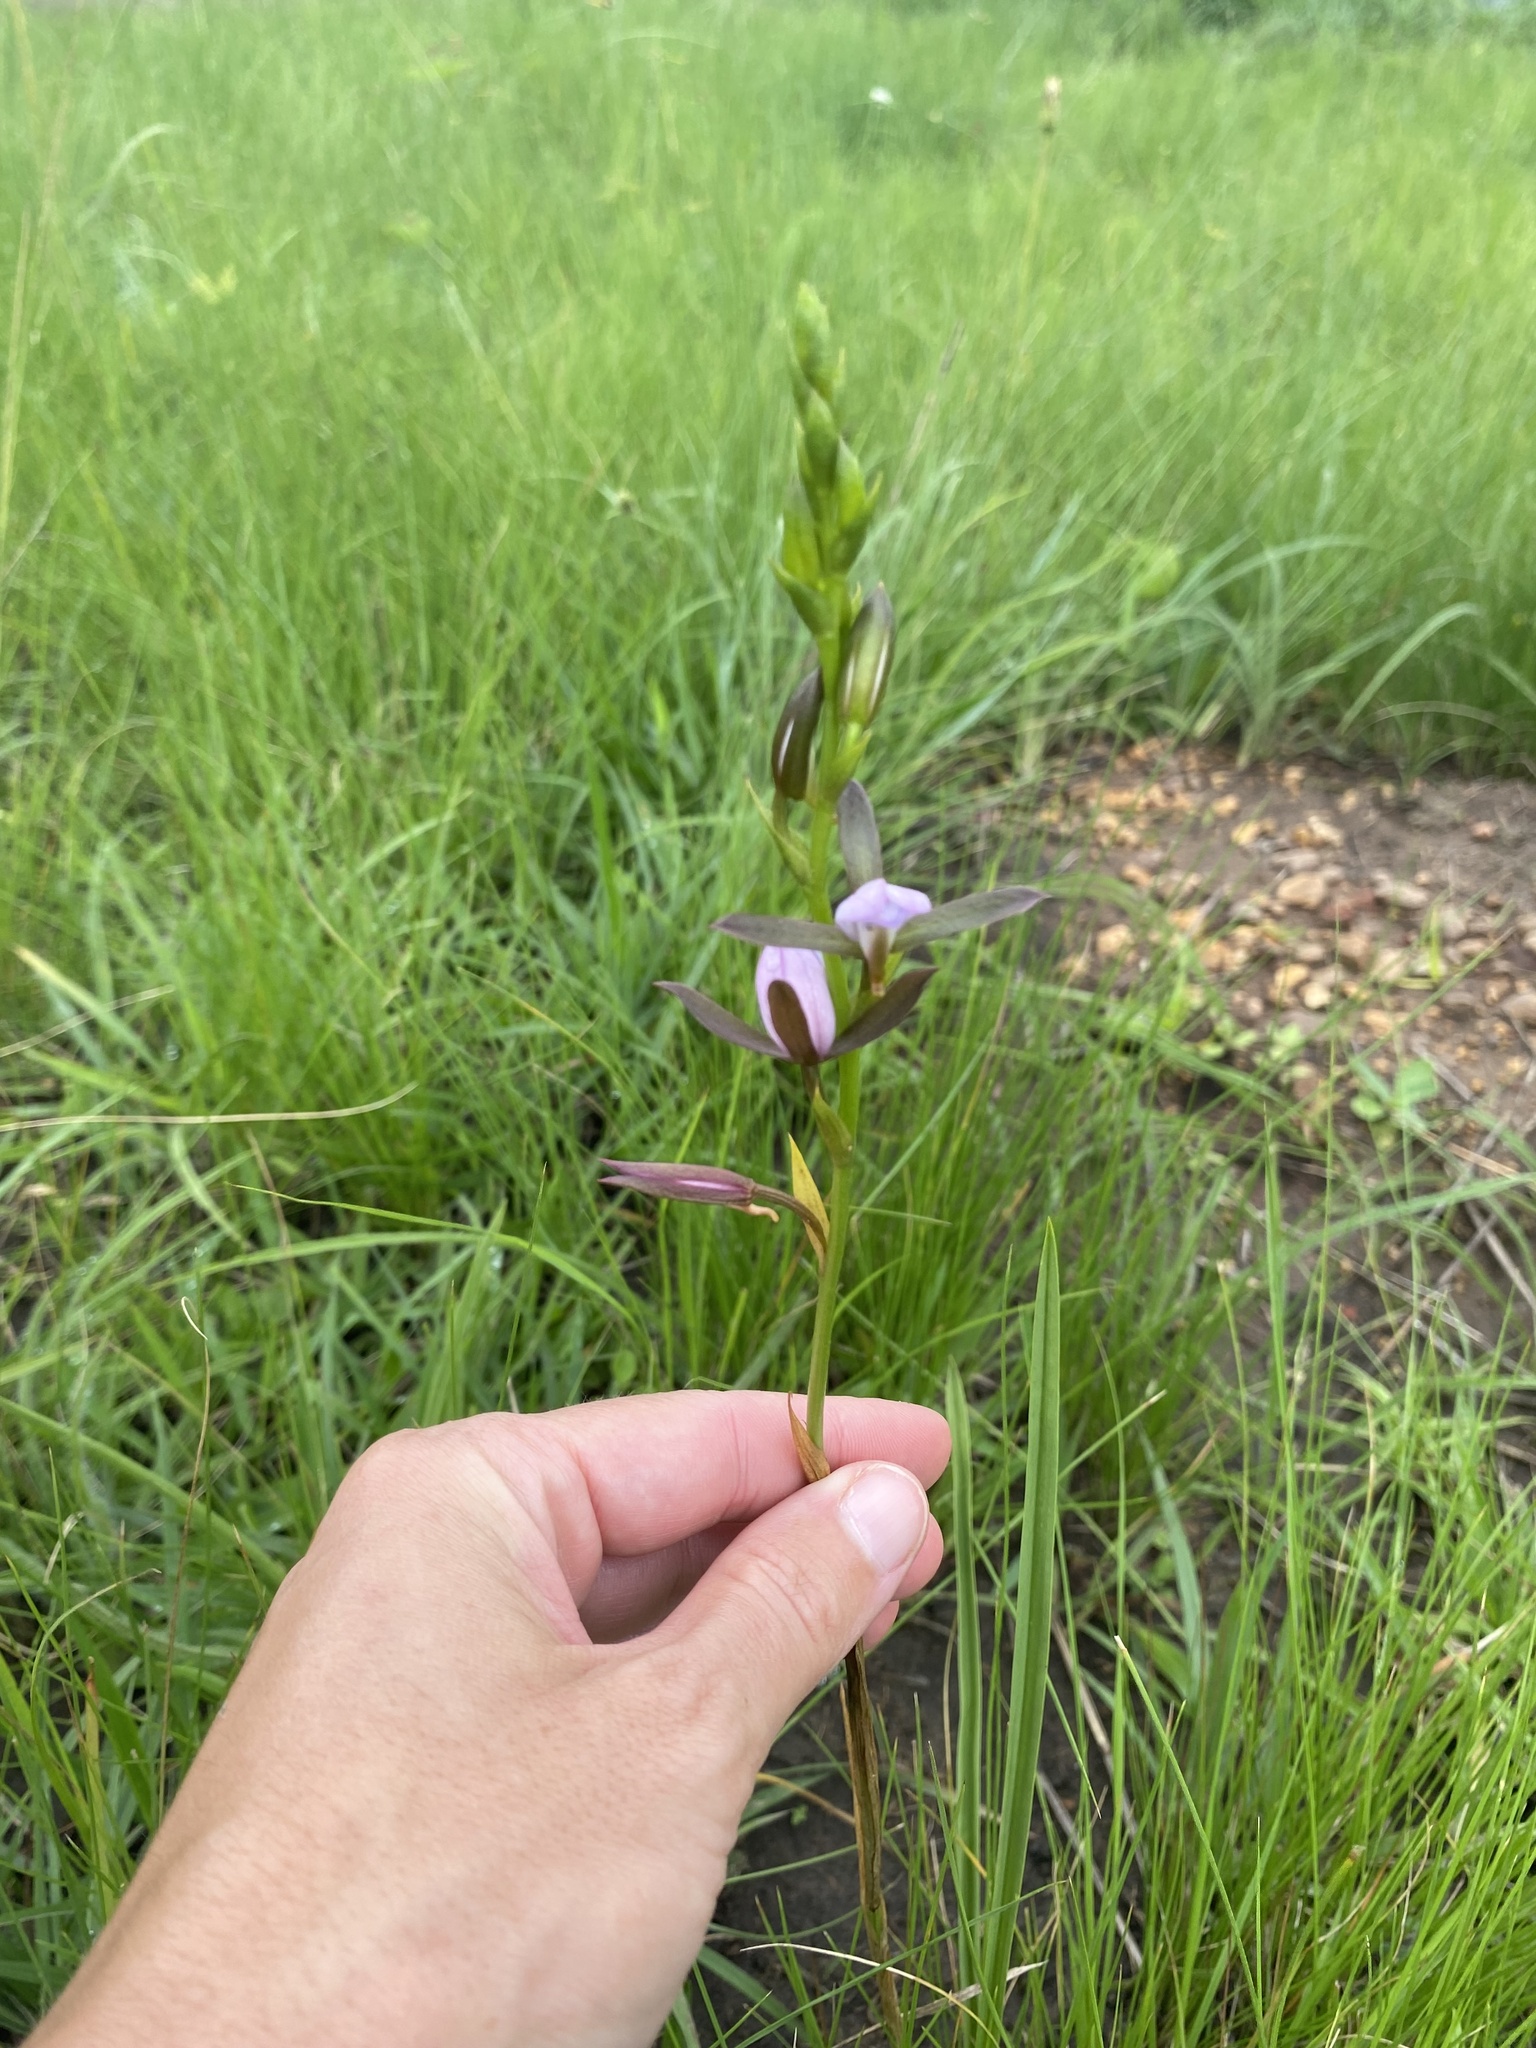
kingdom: Plantae
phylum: Tracheophyta
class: Liliopsida
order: Asparagales
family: Orchidaceae
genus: Eulophia
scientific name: Eulophia hians
